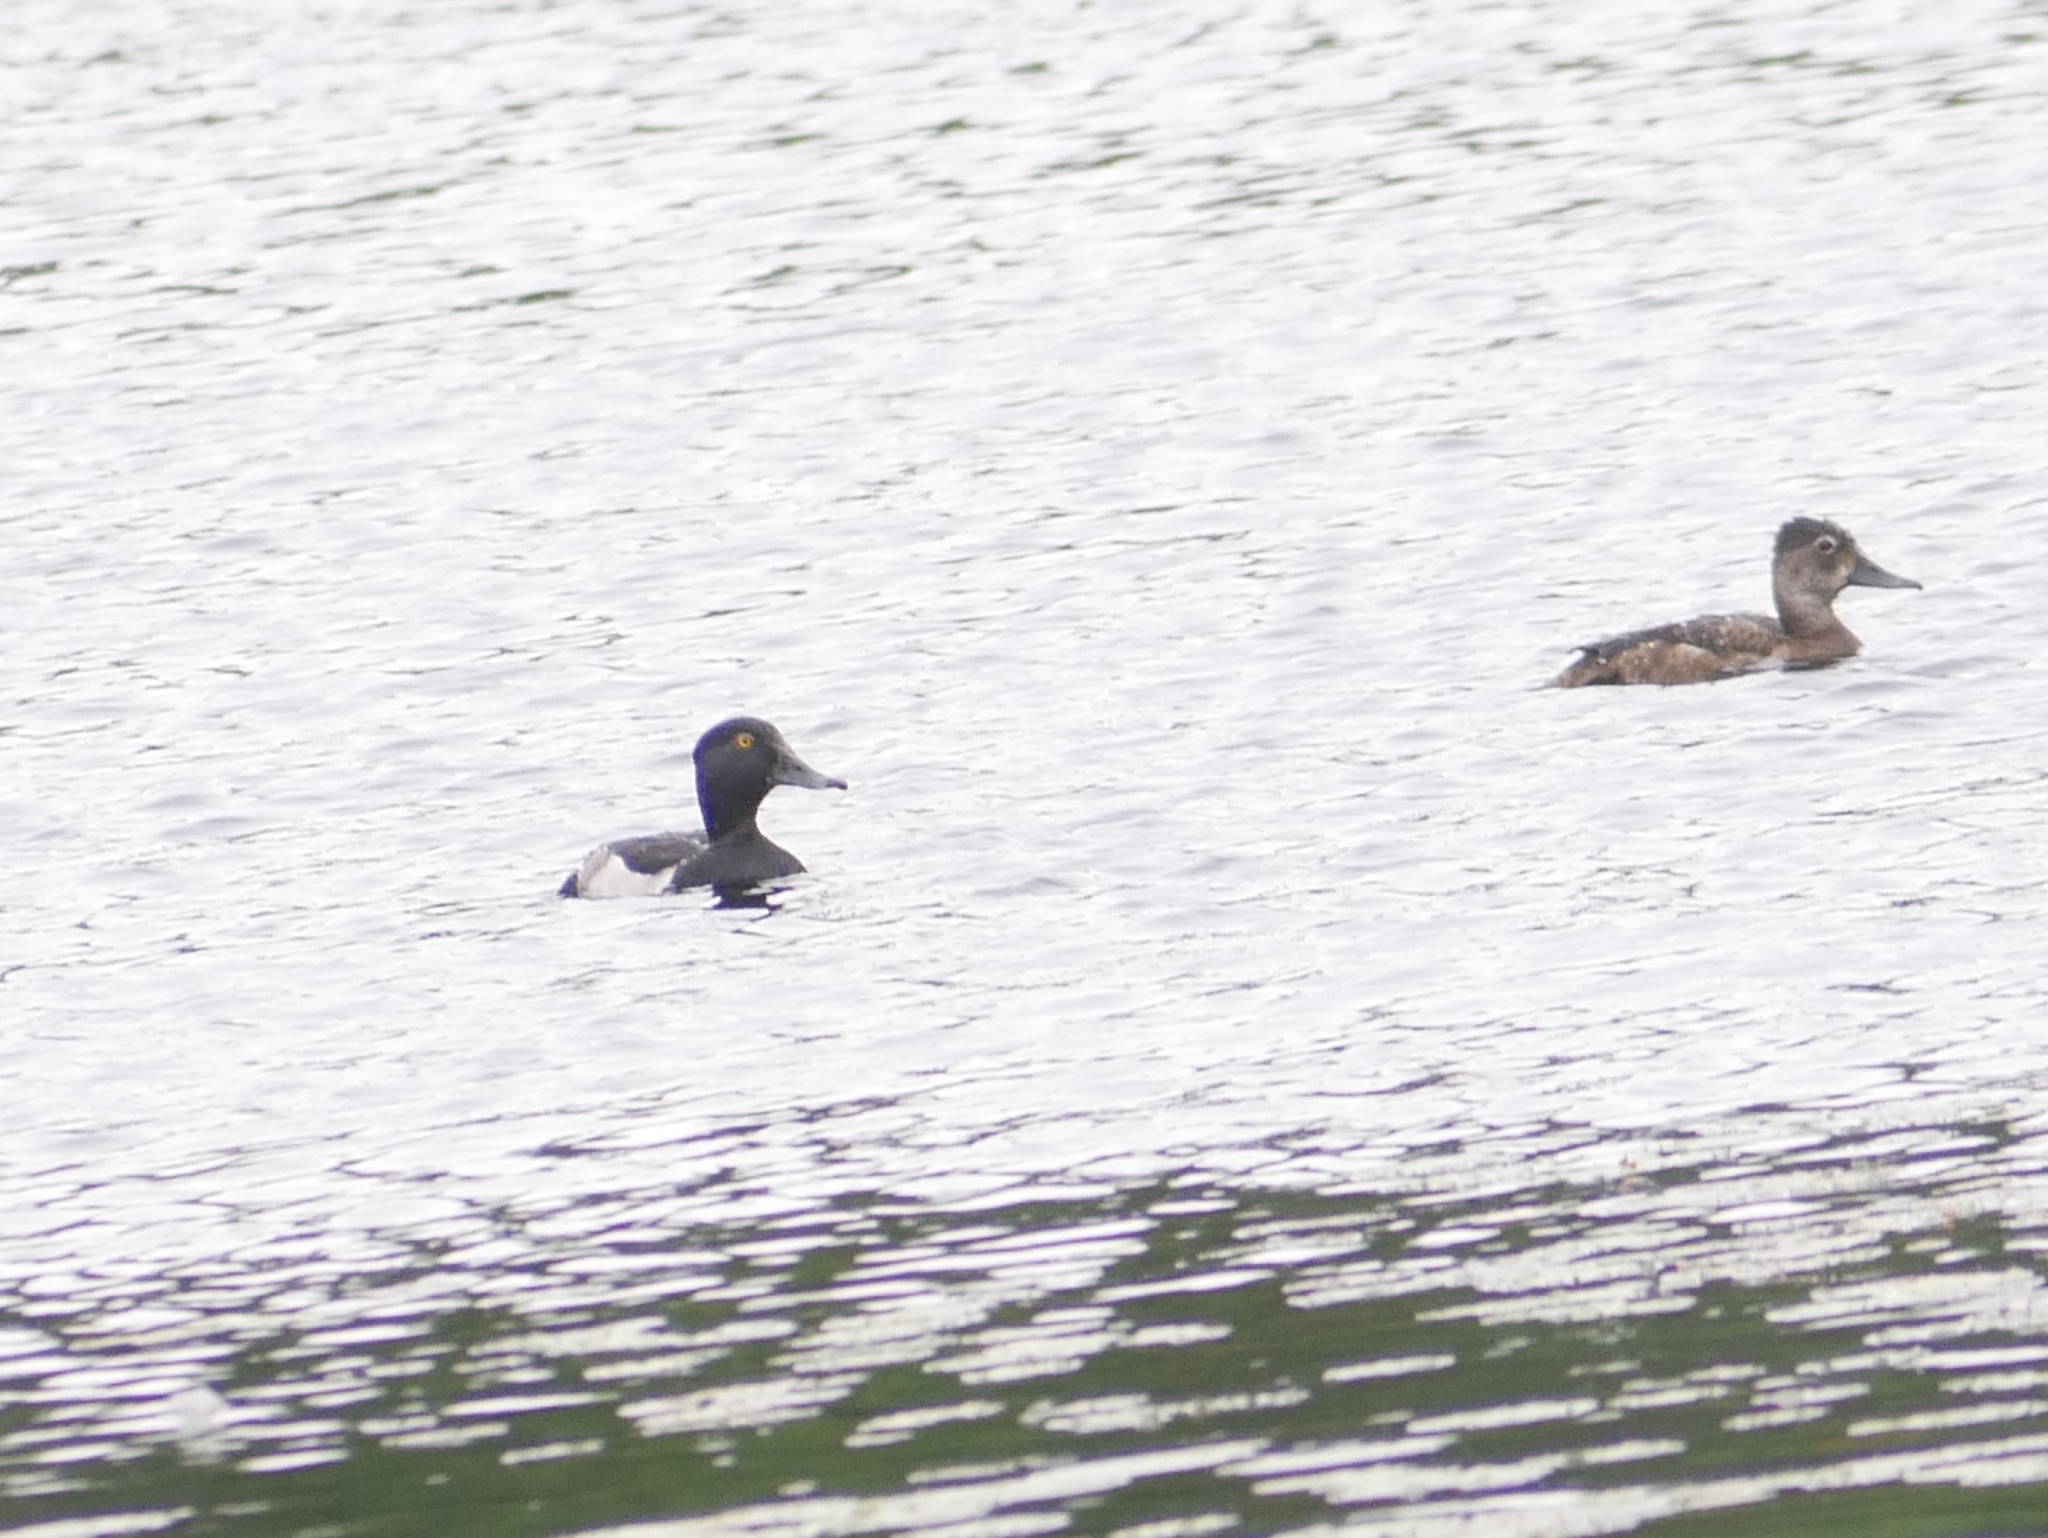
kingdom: Animalia
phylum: Chordata
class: Aves
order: Anseriformes
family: Anatidae
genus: Aythya
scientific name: Aythya collaris
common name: Ring-necked duck
